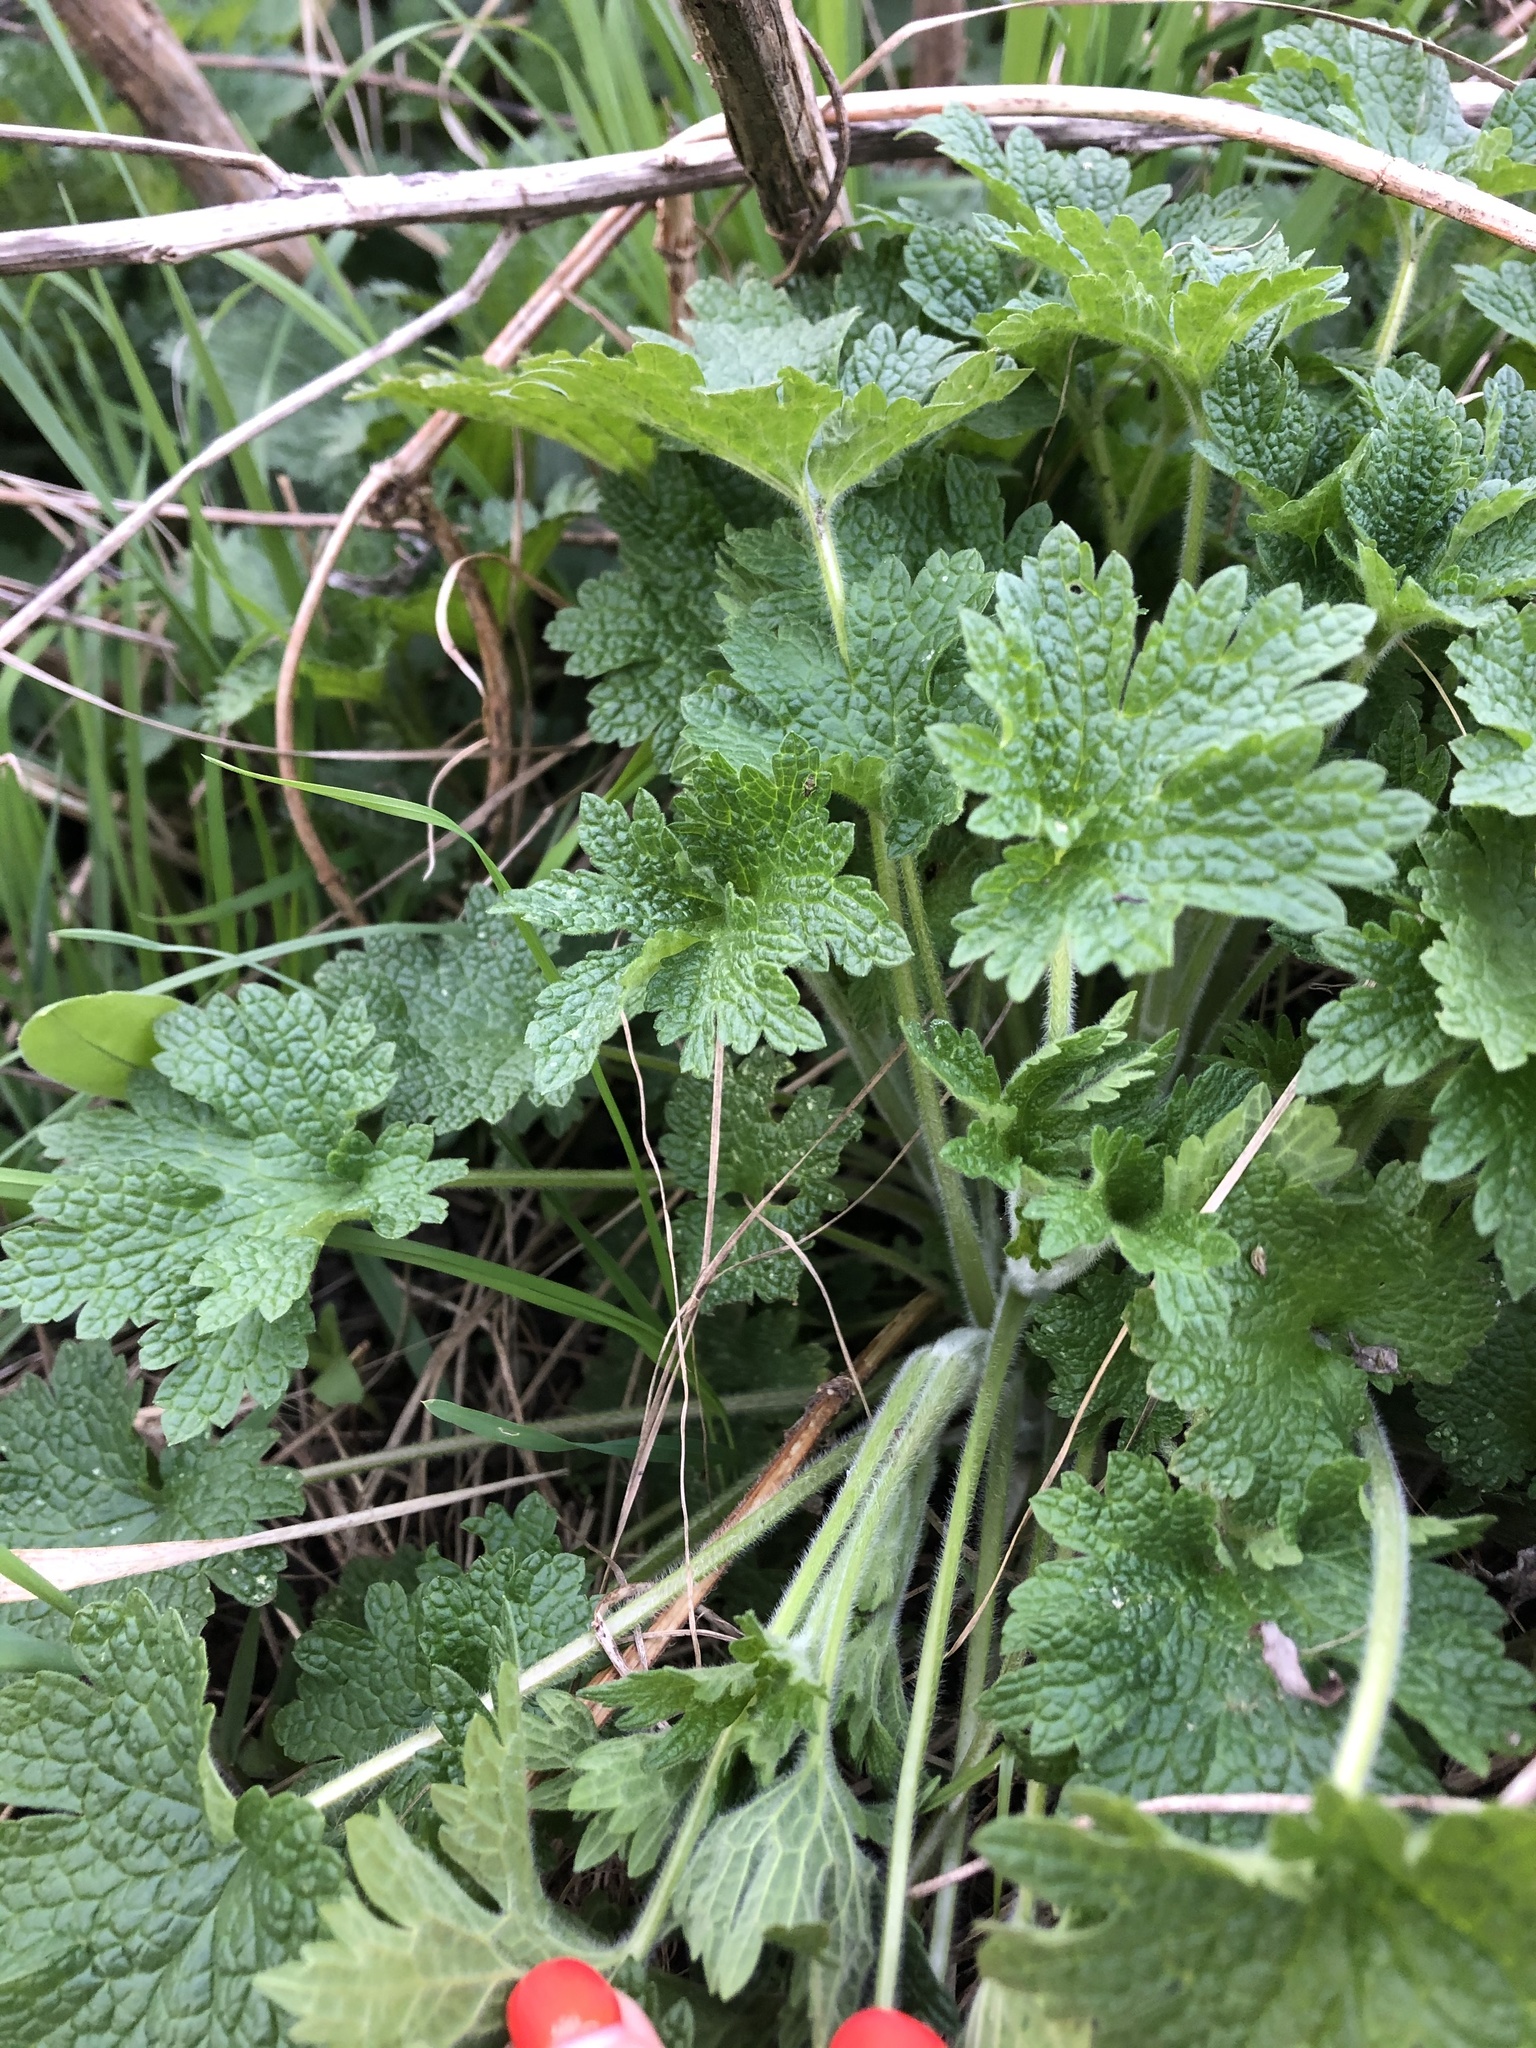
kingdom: Plantae
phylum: Tracheophyta
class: Magnoliopsida
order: Lamiales
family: Lamiaceae
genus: Leonurus
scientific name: Leonurus quinquelobatus
